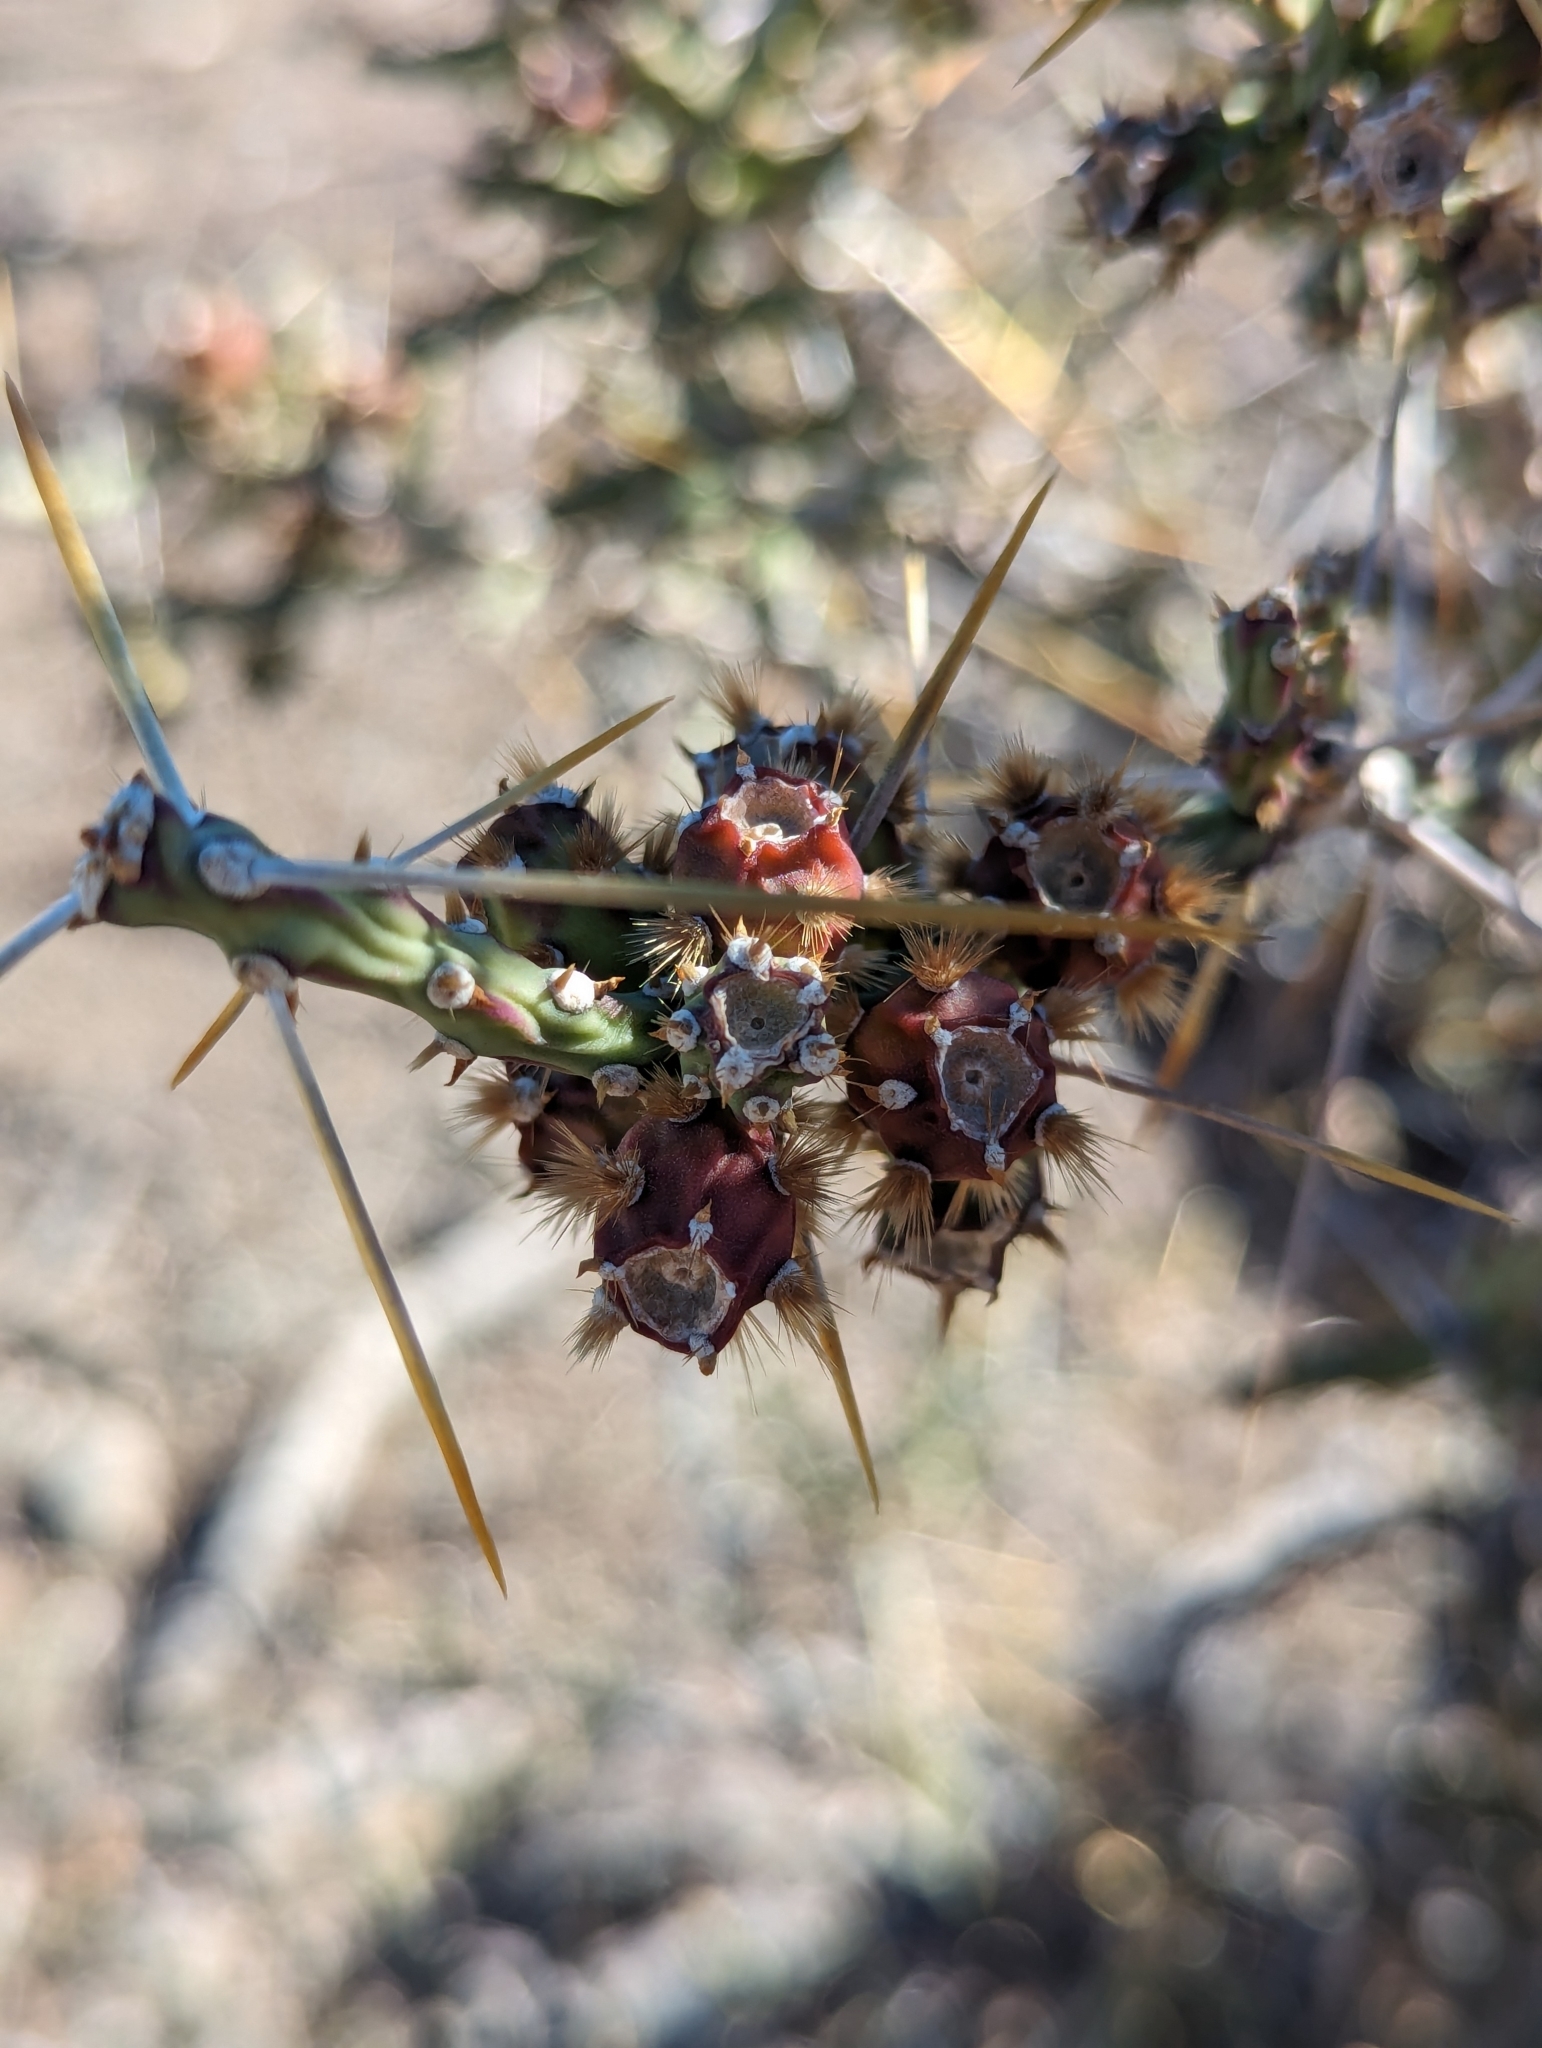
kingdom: Plantae
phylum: Tracheophyta
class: Magnoliopsida
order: Caryophyllales
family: Cactaceae
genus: Cylindropuntia
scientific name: Cylindropuntia leptocaulis
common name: Christmas cactus
